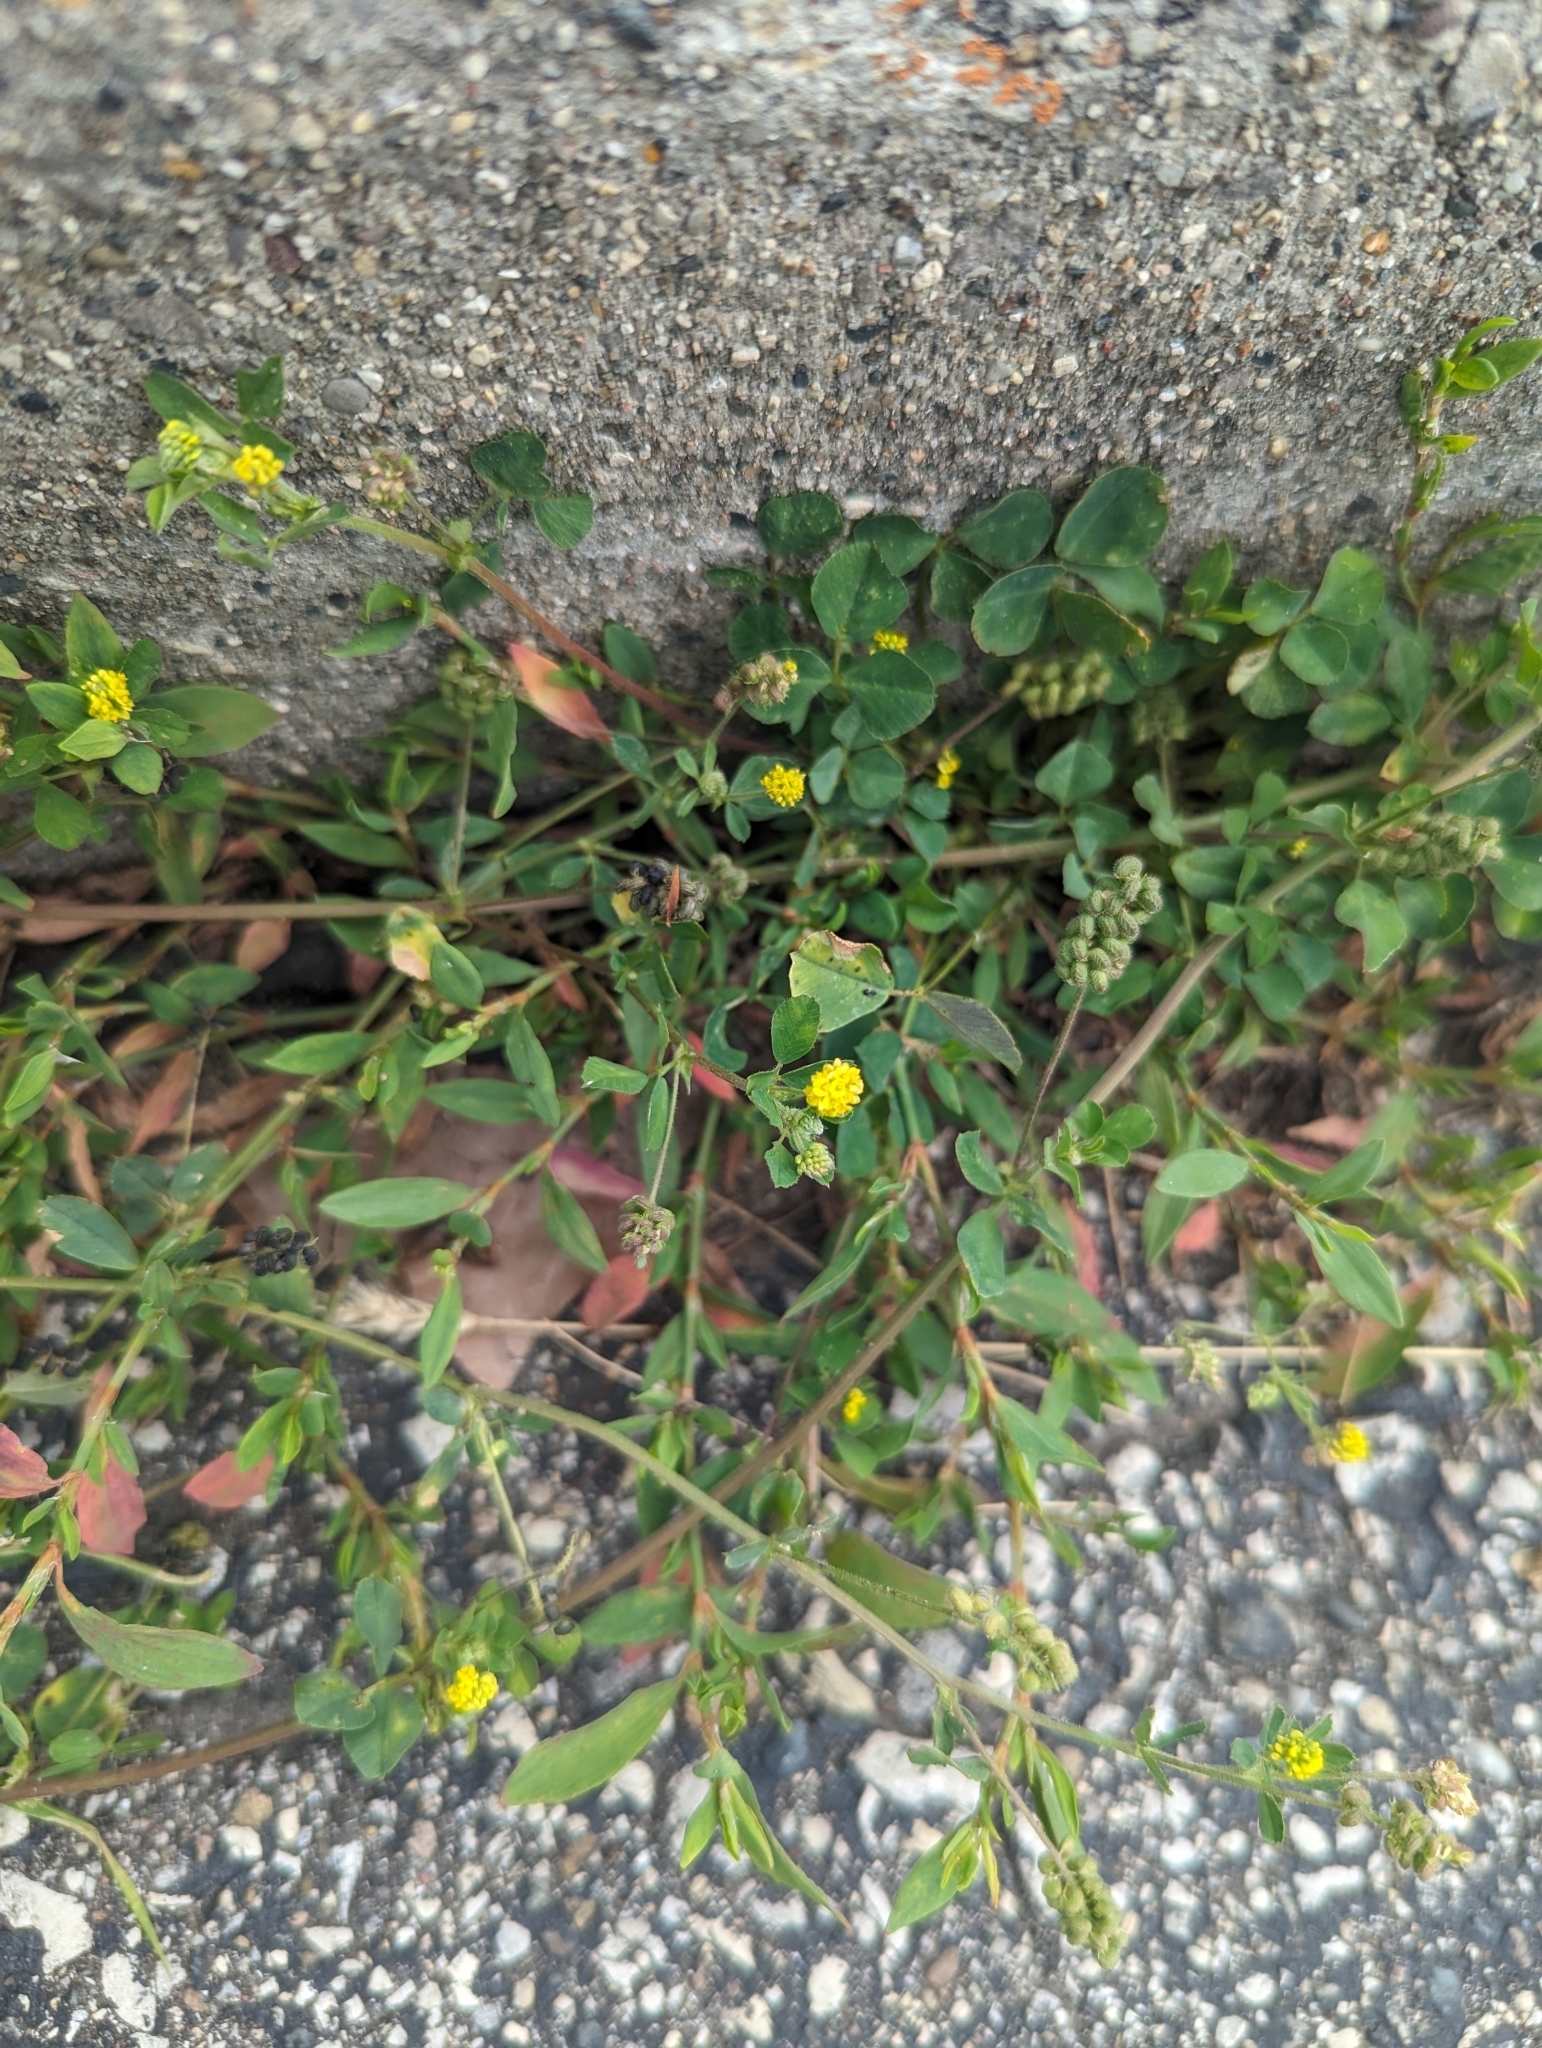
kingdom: Plantae
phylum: Tracheophyta
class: Magnoliopsida
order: Fabales
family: Fabaceae
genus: Medicago
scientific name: Medicago lupulina
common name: Black medick
